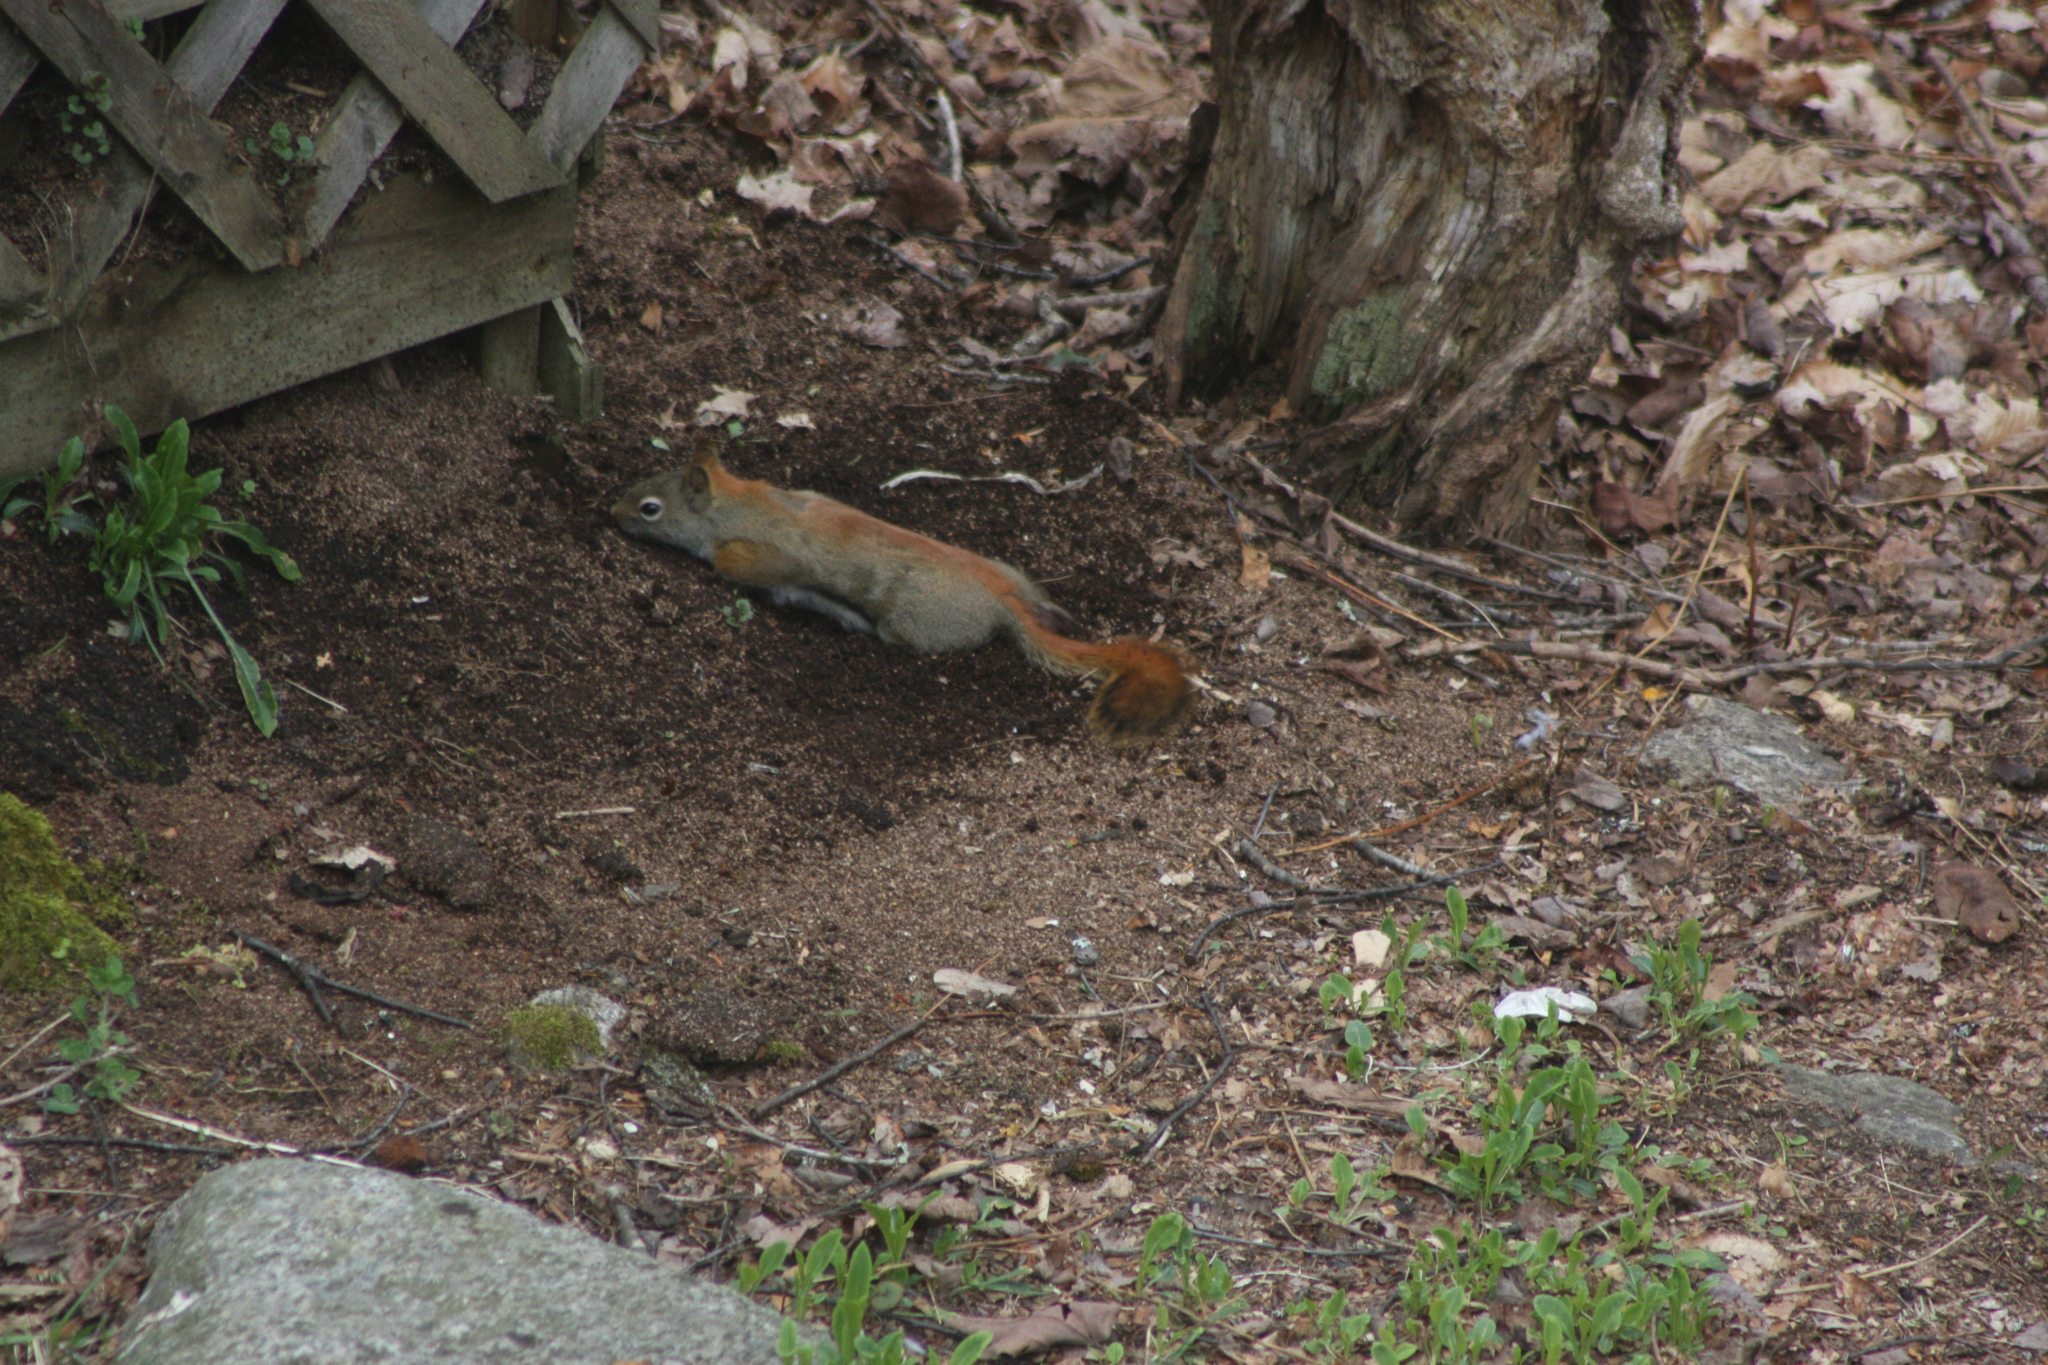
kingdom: Animalia
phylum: Chordata
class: Mammalia
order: Rodentia
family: Sciuridae
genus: Tamiasciurus
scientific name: Tamiasciurus hudsonicus
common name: Red squirrel
